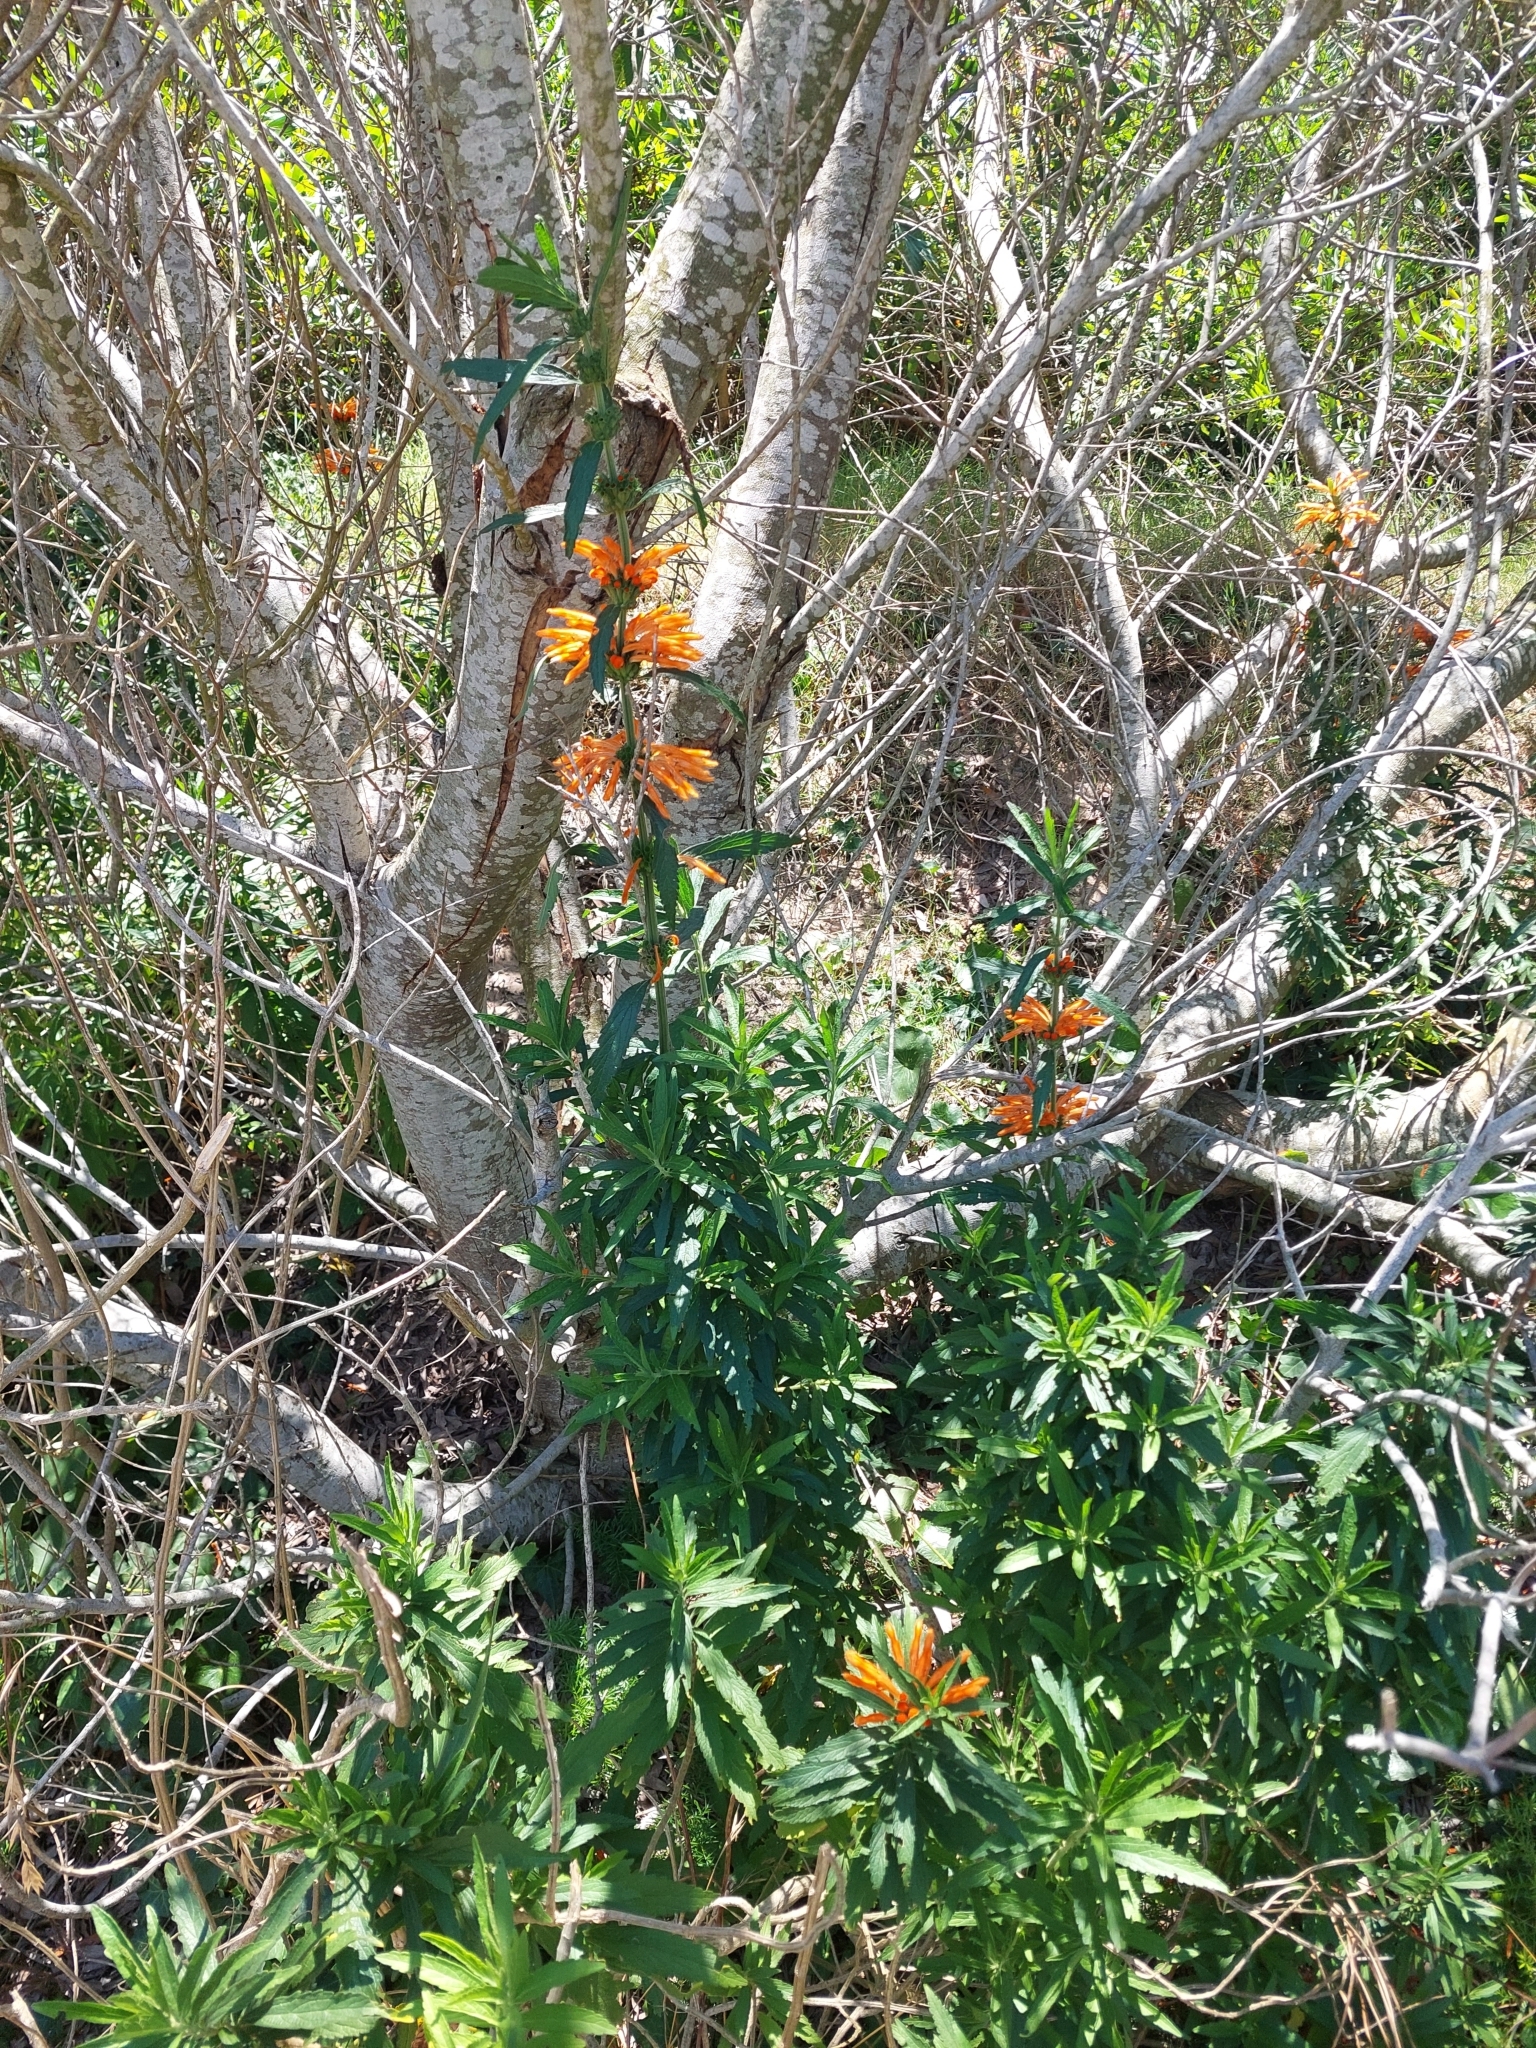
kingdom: Plantae
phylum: Tracheophyta
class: Magnoliopsida
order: Lamiales
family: Lamiaceae
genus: Leonotis
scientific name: Leonotis leonurus
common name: Lion's ear
